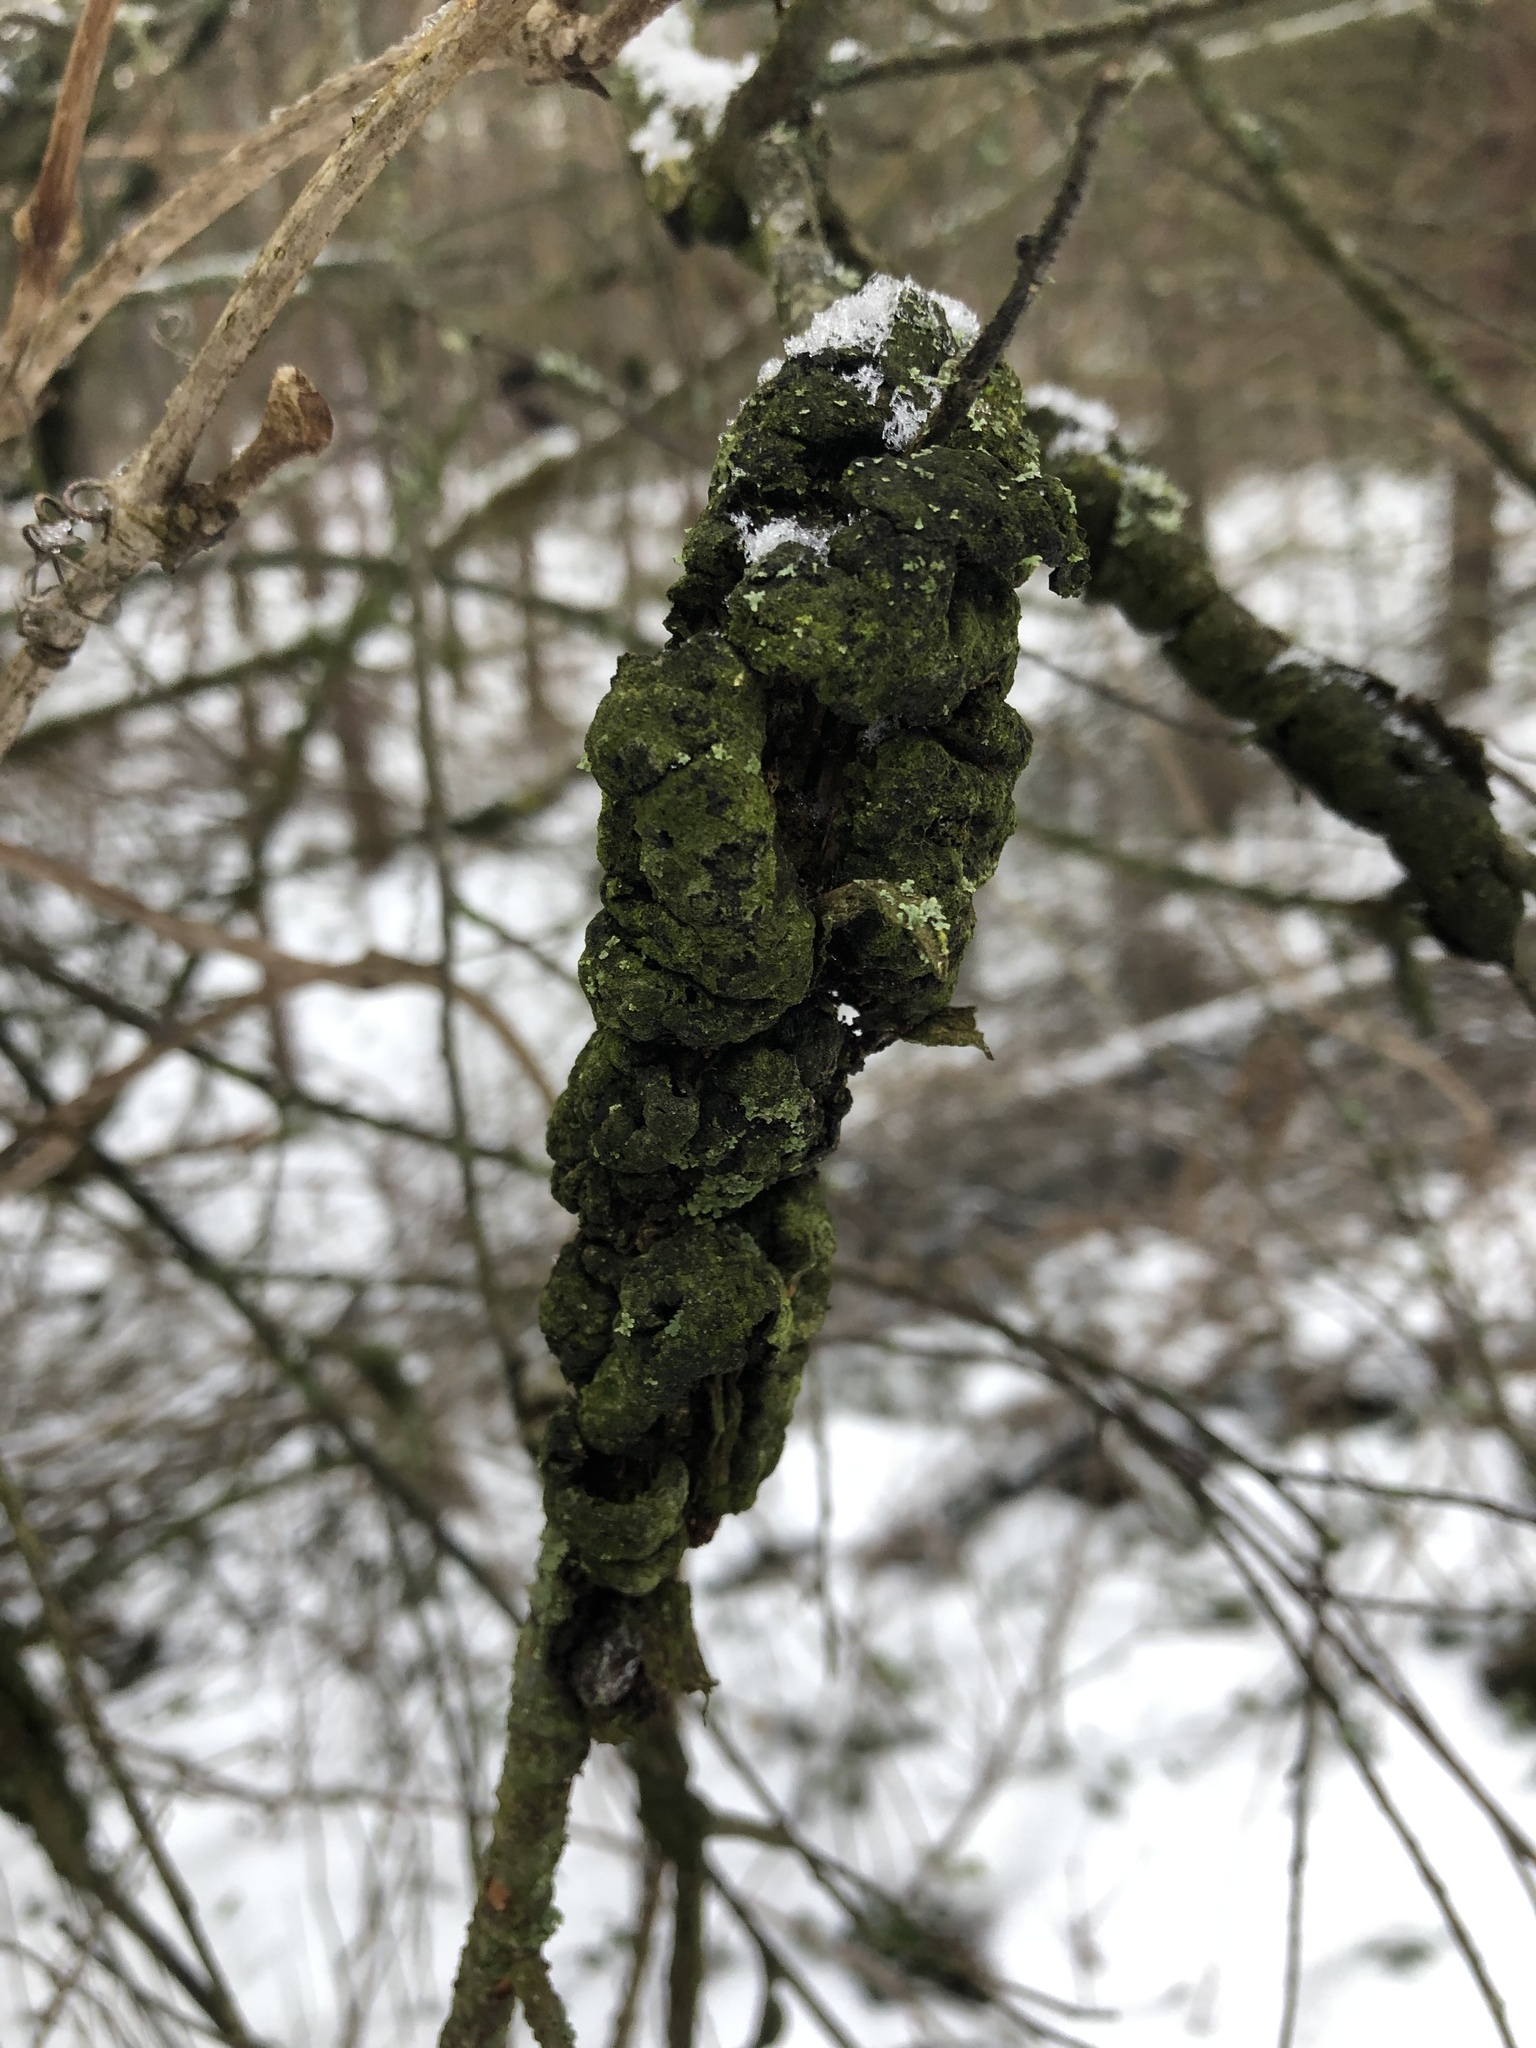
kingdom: Fungi
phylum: Ascomycota
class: Dothideomycetes
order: Venturiales
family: Venturiaceae
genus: Apiosporina
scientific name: Apiosporina morbosa
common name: Black knot
